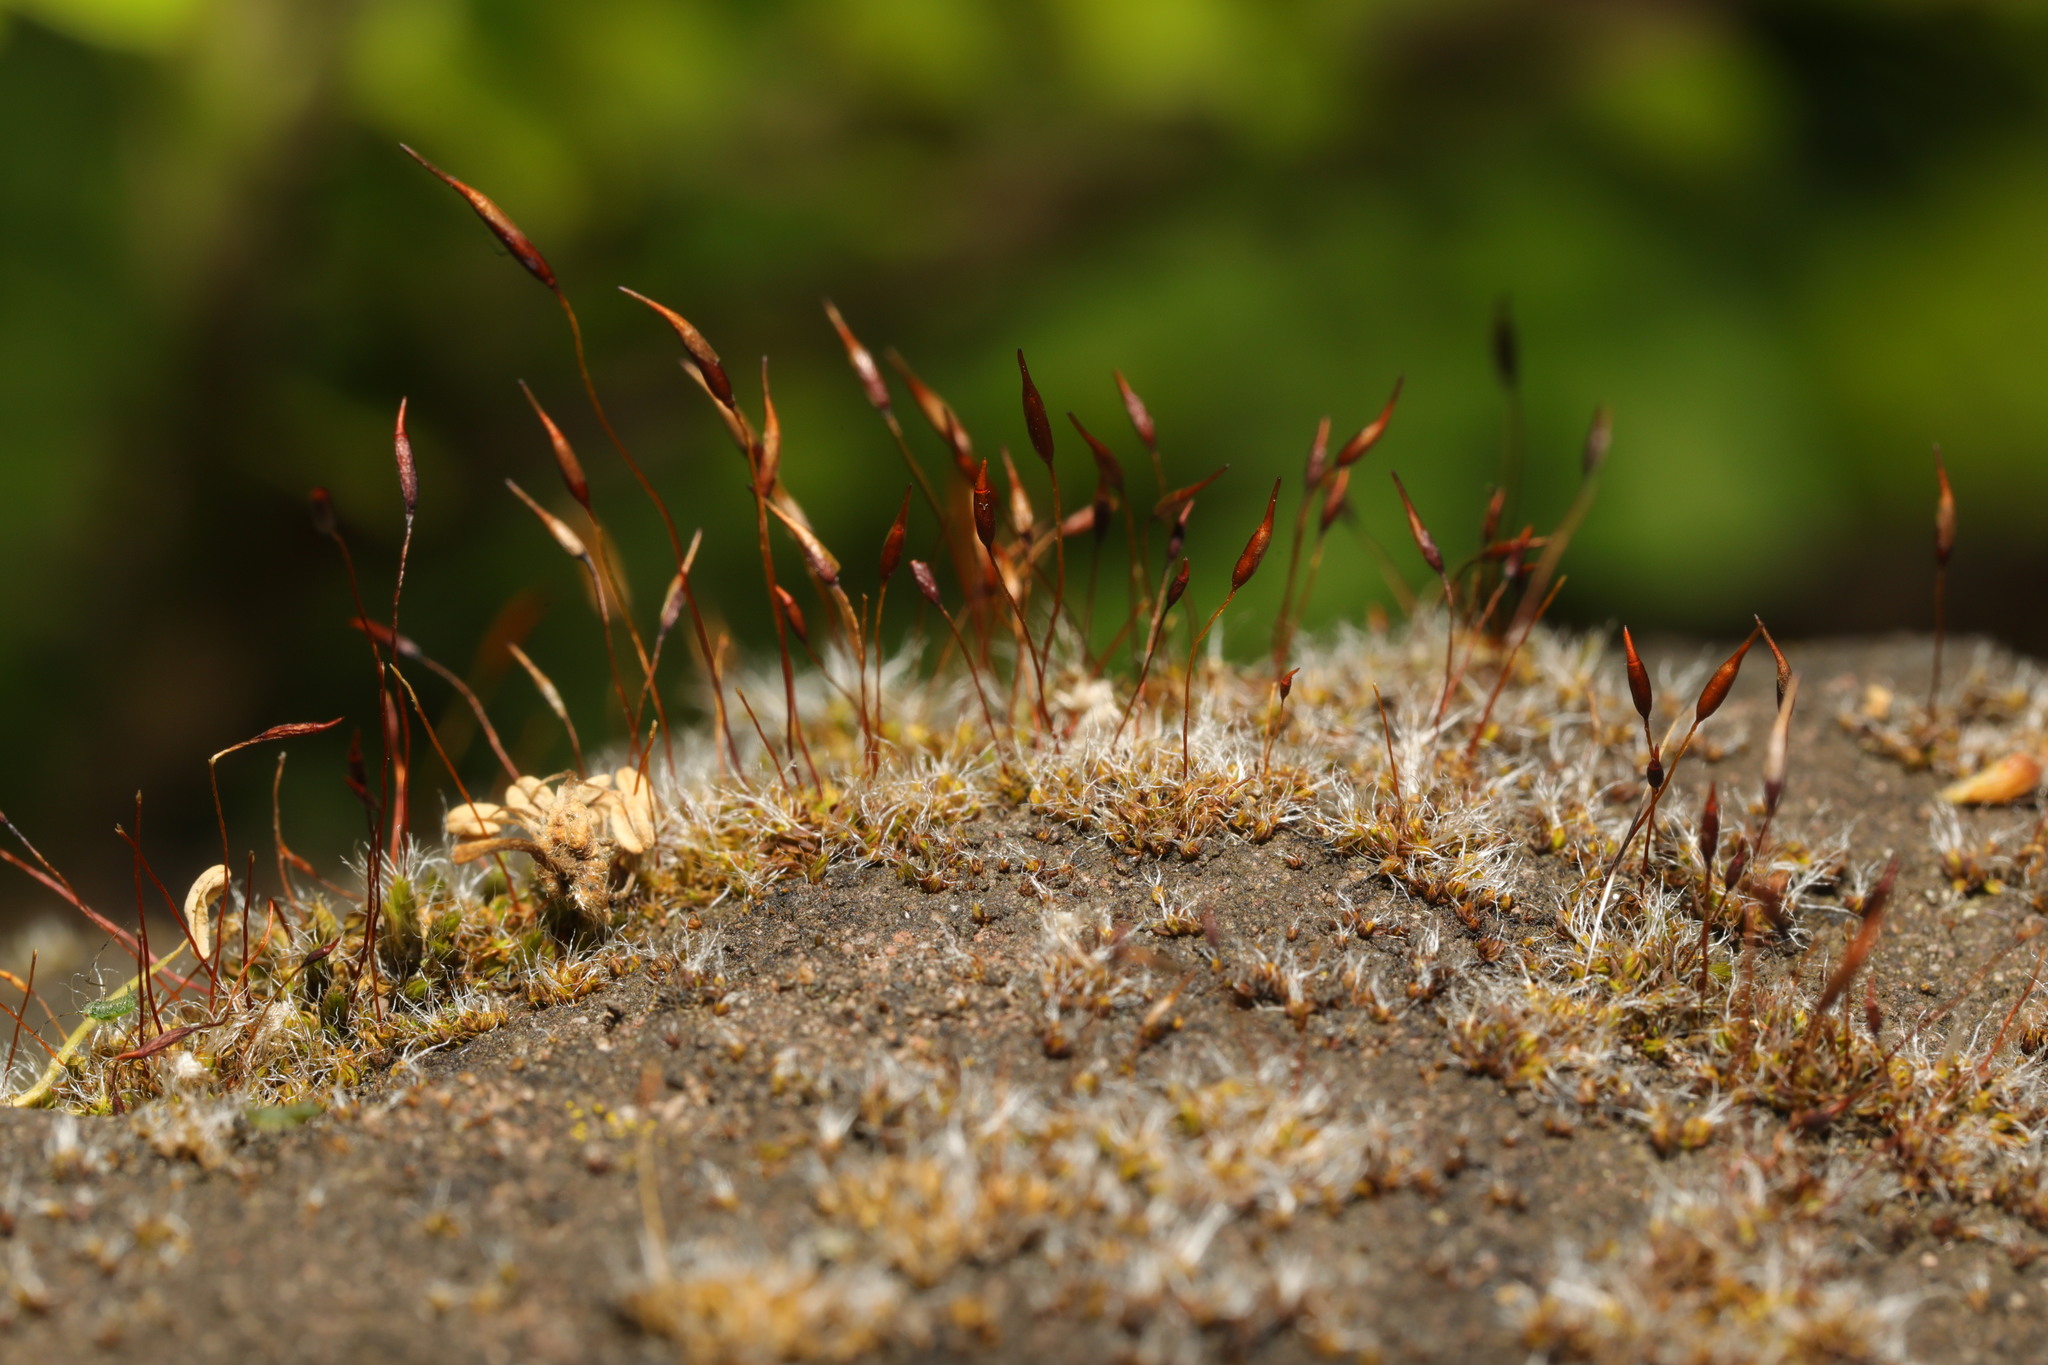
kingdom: Plantae
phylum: Bryophyta
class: Bryopsida
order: Pottiales
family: Pottiaceae
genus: Tortula
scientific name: Tortula muralis
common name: Wall screw-moss
